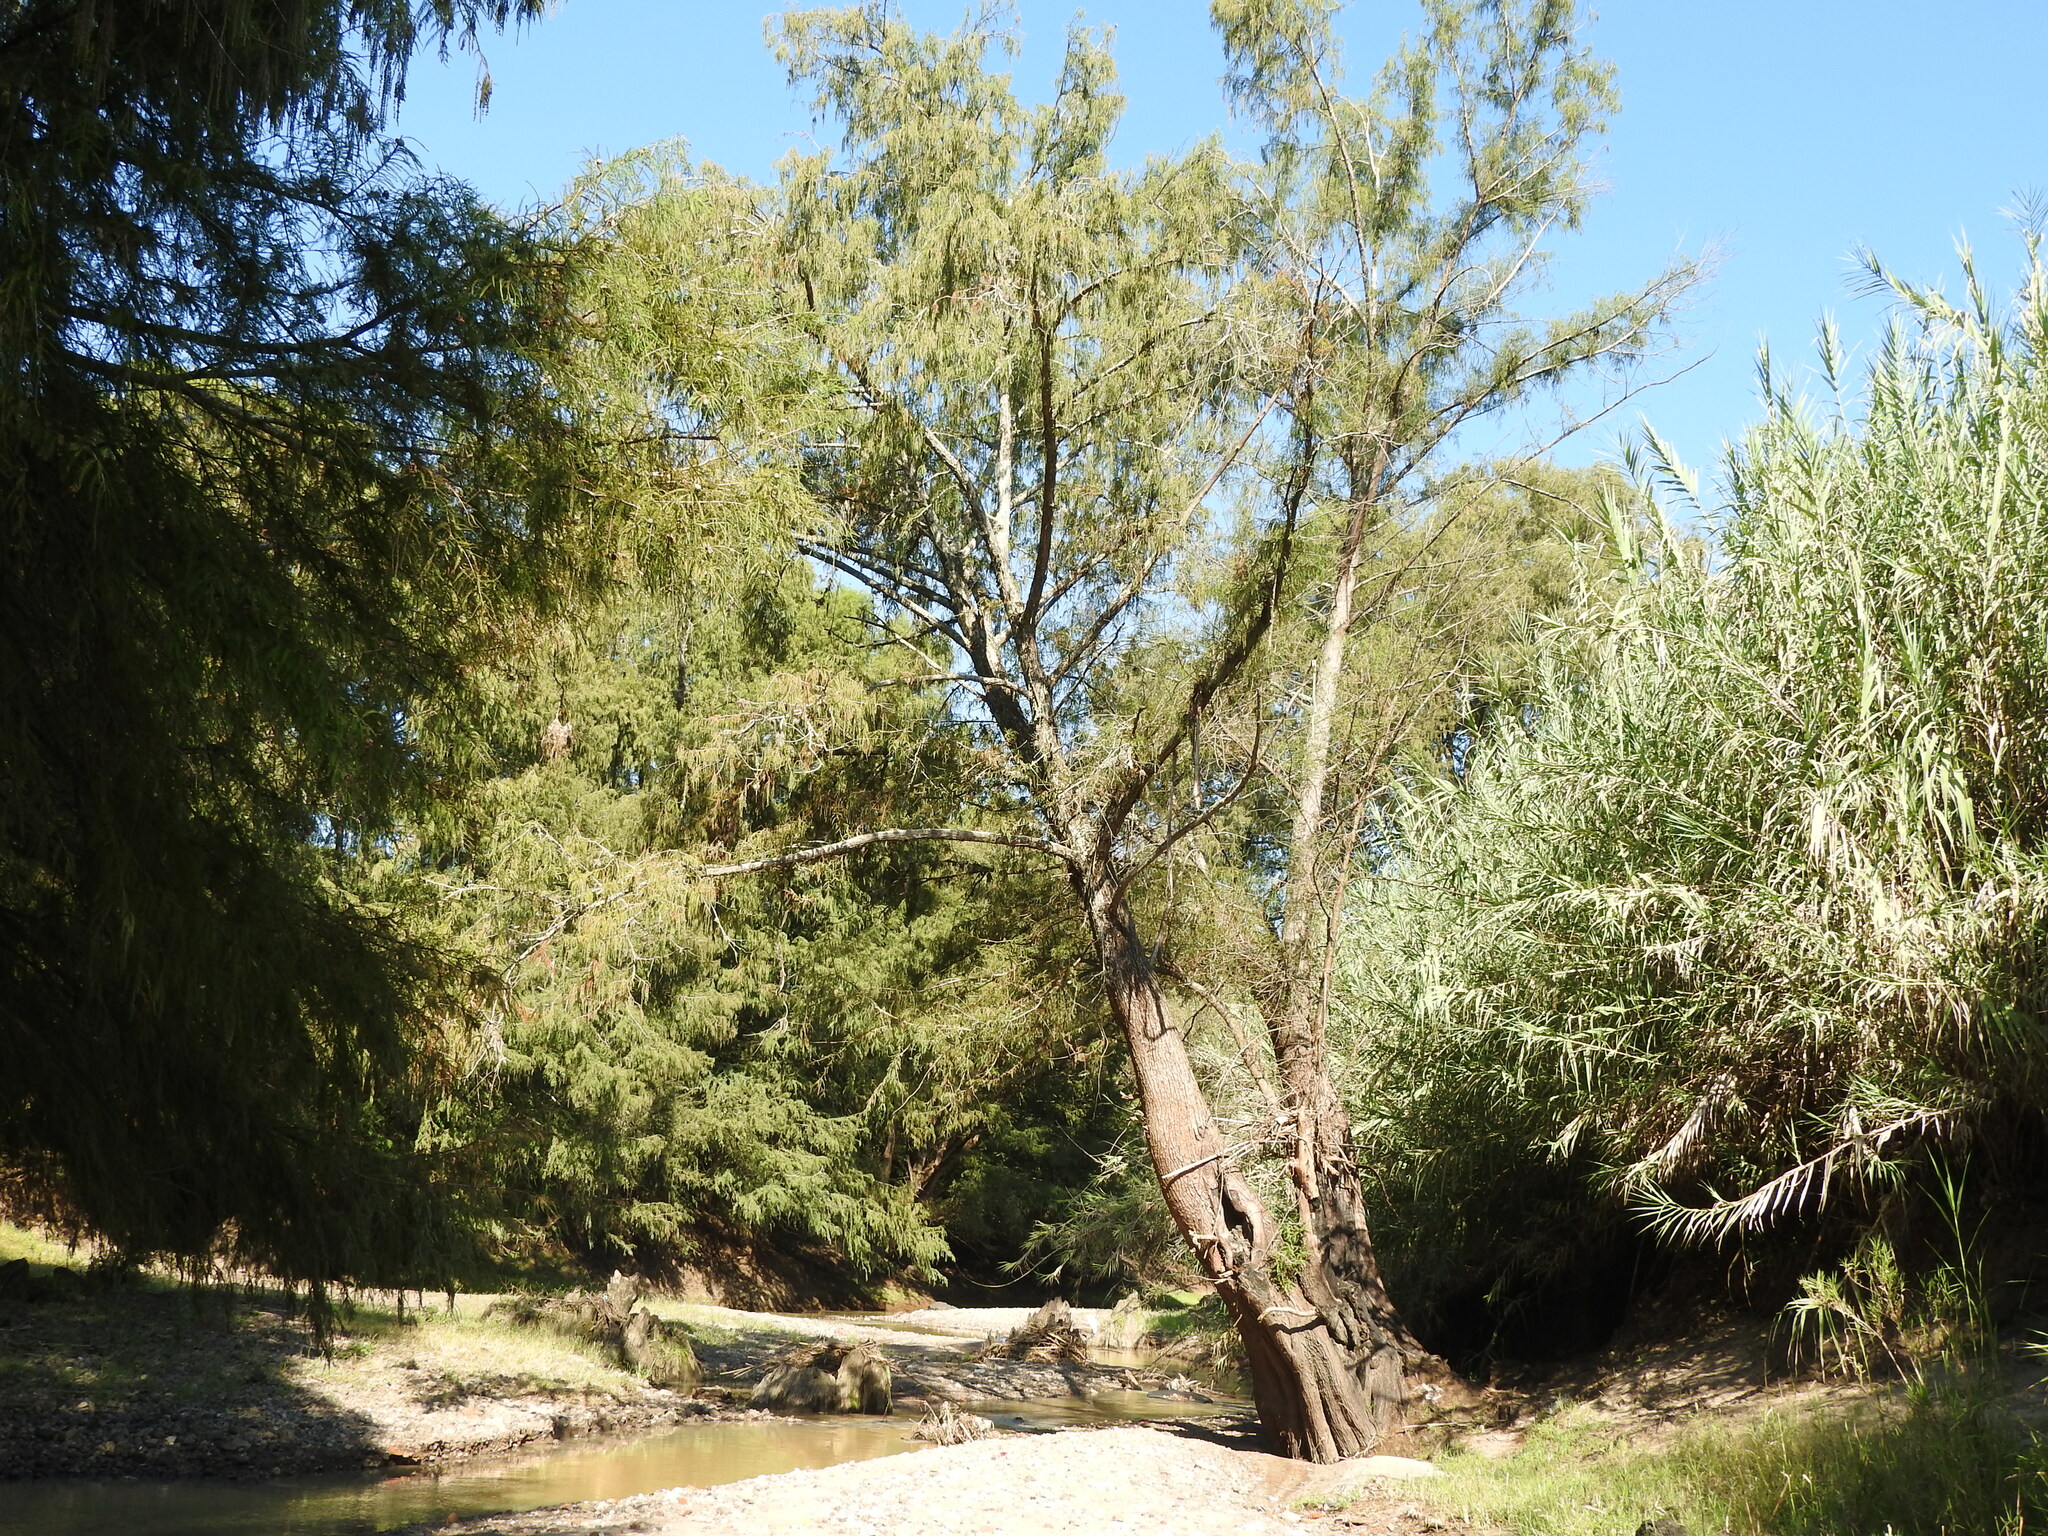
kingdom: Plantae
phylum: Tracheophyta
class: Pinopsida
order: Pinales
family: Cupressaceae
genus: Taxodium
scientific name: Taxodium mucronatum
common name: Montezume bald cypress
